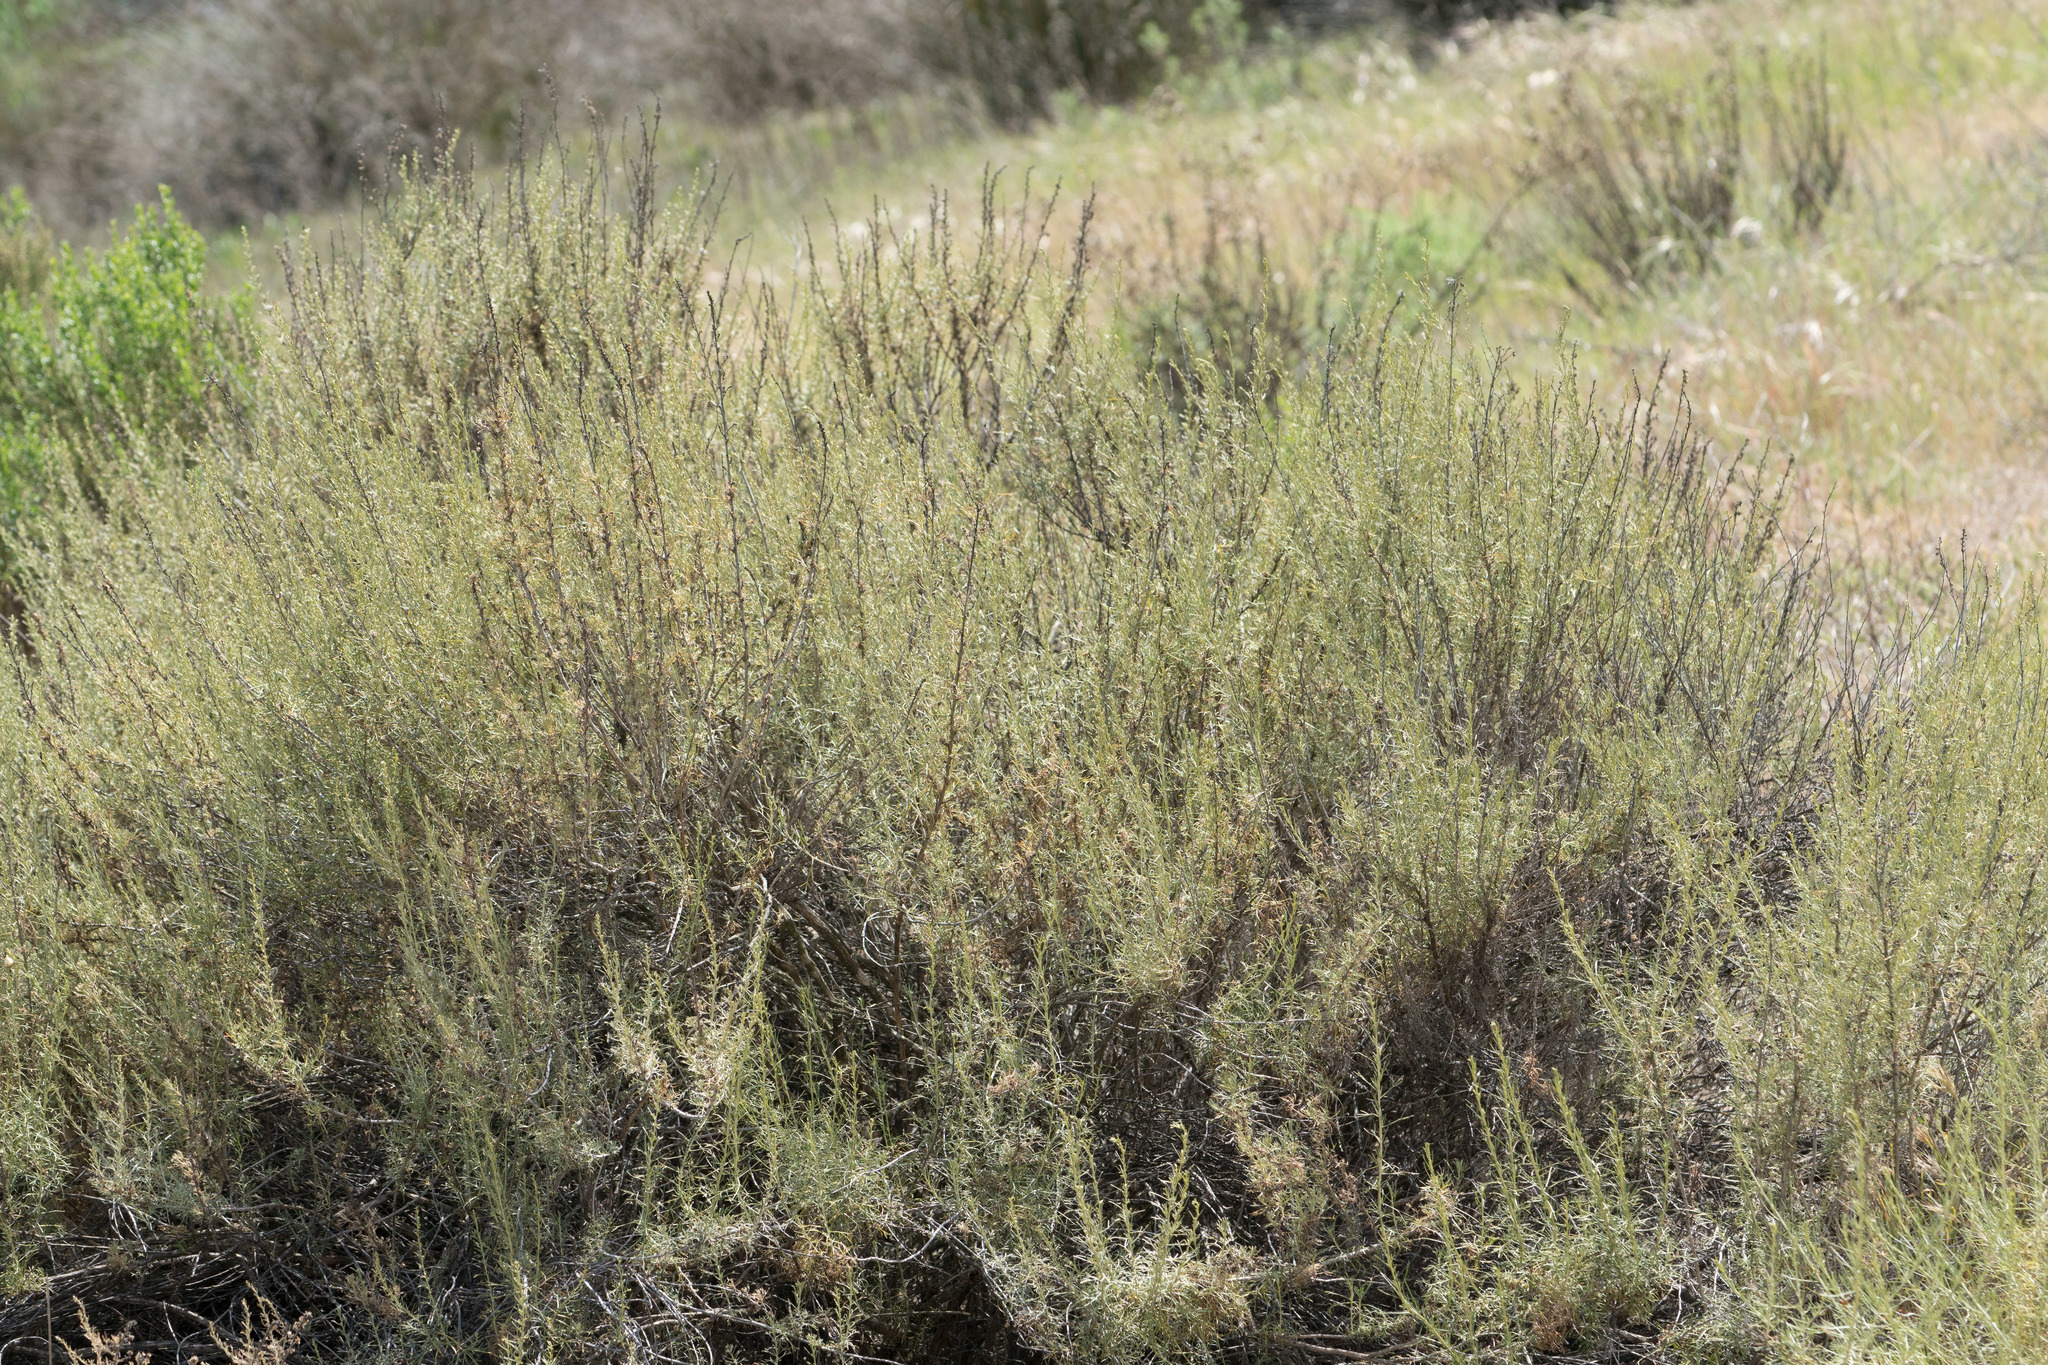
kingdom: Plantae
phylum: Tracheophyta
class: Magnoliopsida
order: Asterales
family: Asteraceae
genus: Artemisia
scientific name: Artemisia californica
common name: California sagebrush
